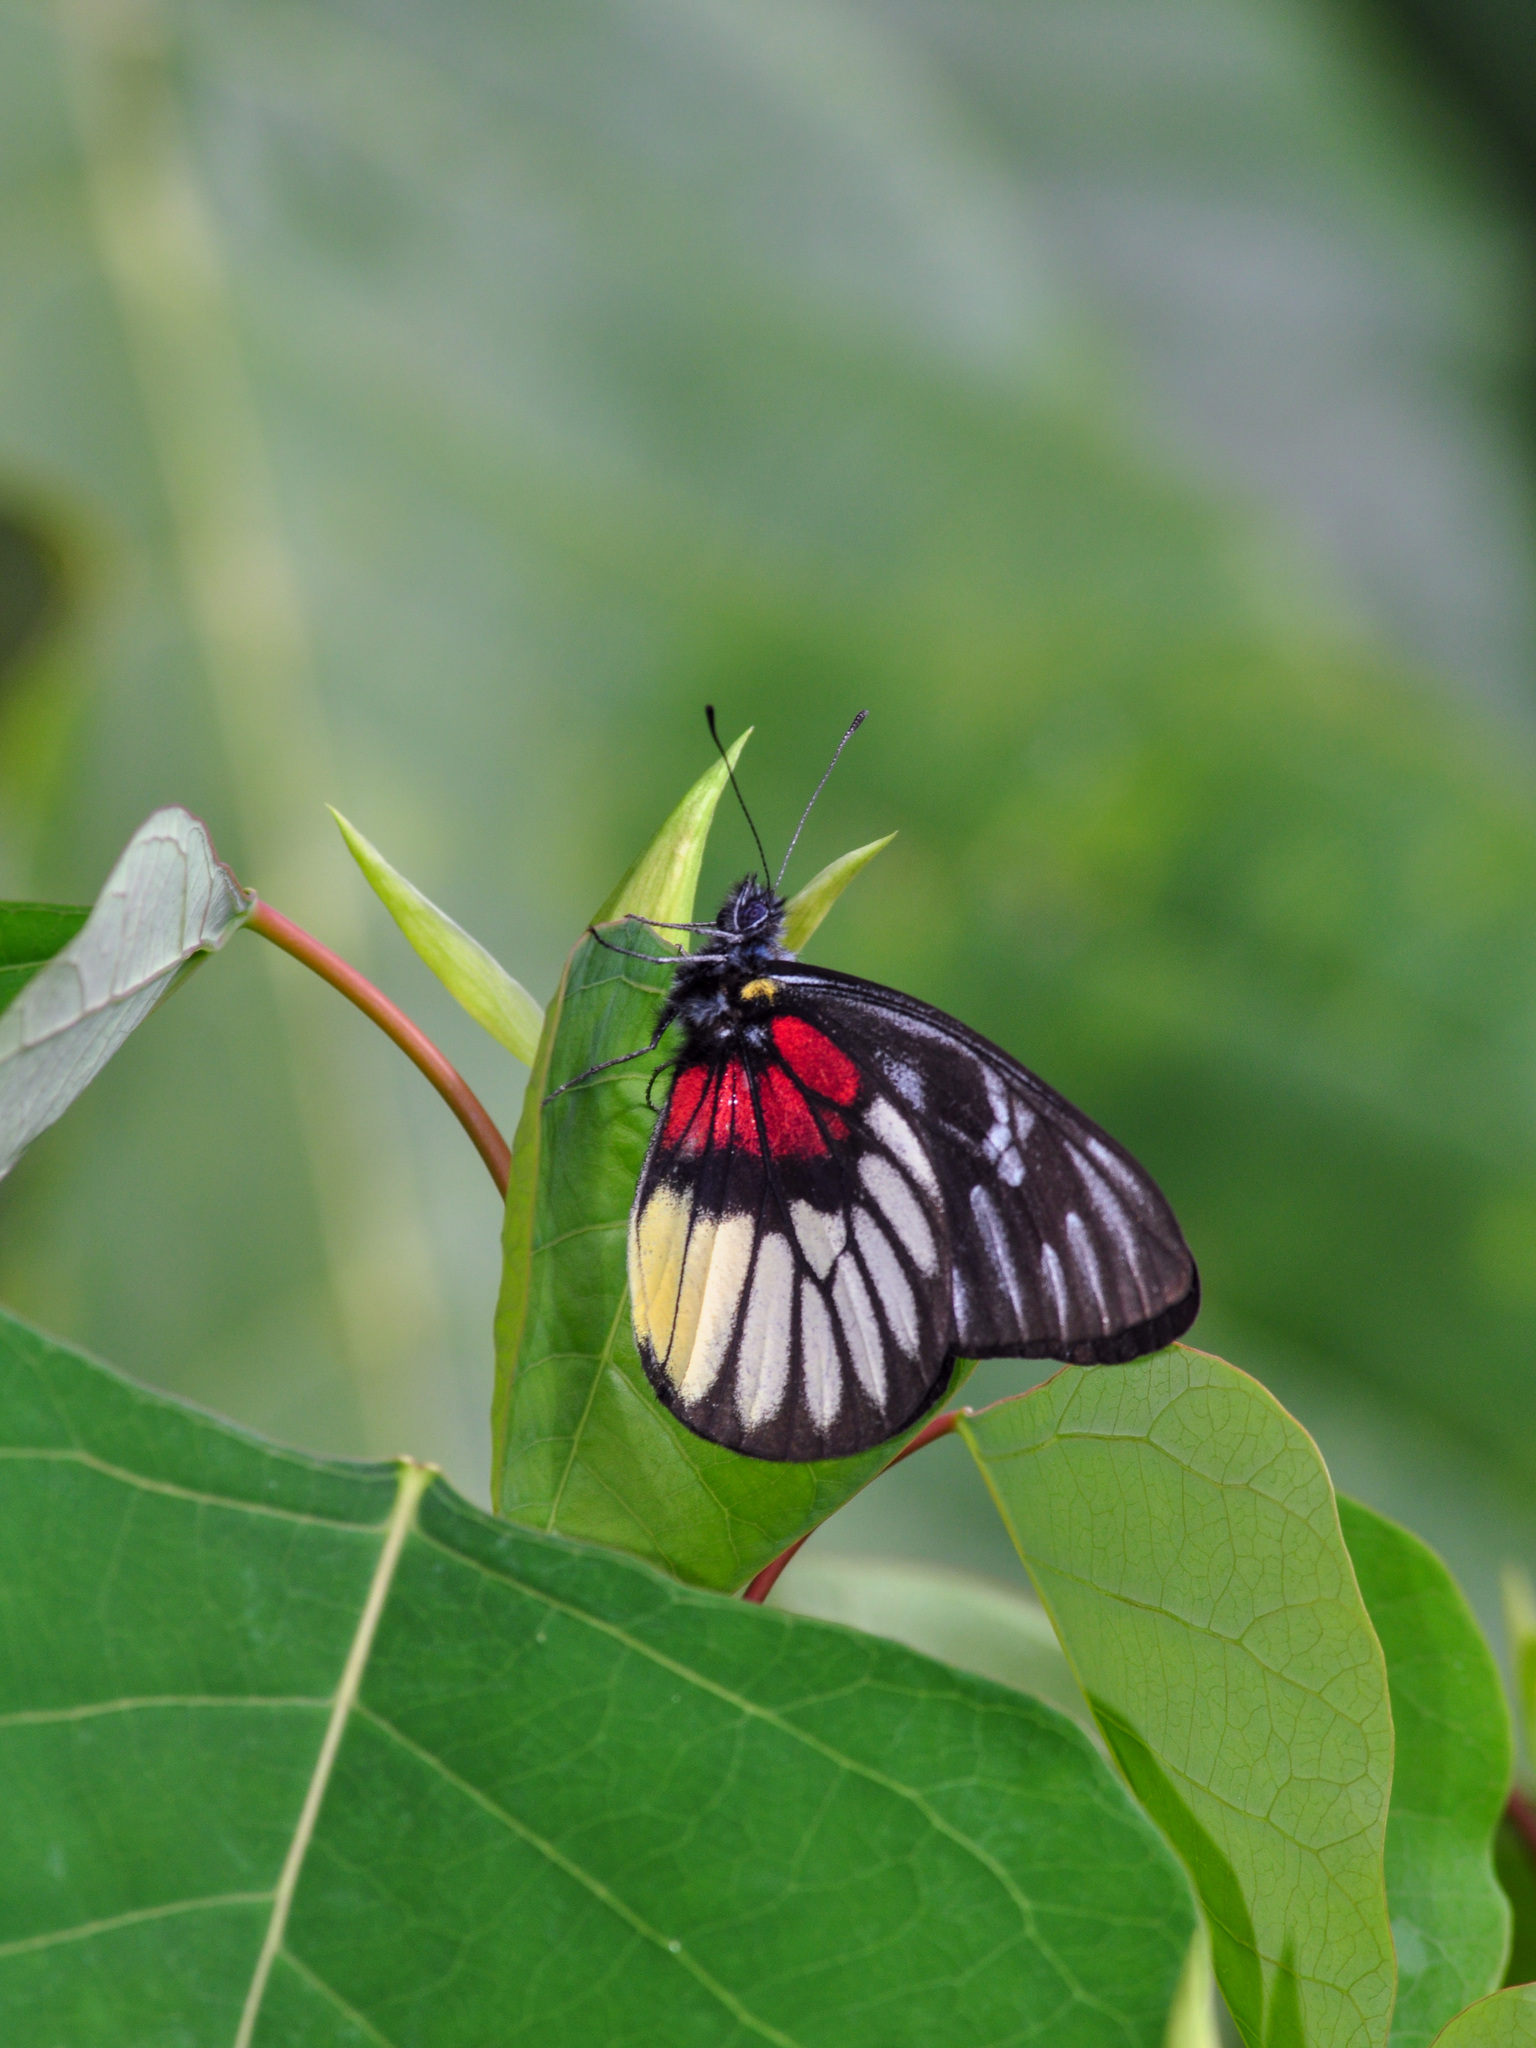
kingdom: Animalia
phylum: Arthropoda
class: Insecta
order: Lepidoptera
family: Pieridae
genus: Delias
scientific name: Delias ninus
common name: Malayan jezebel
